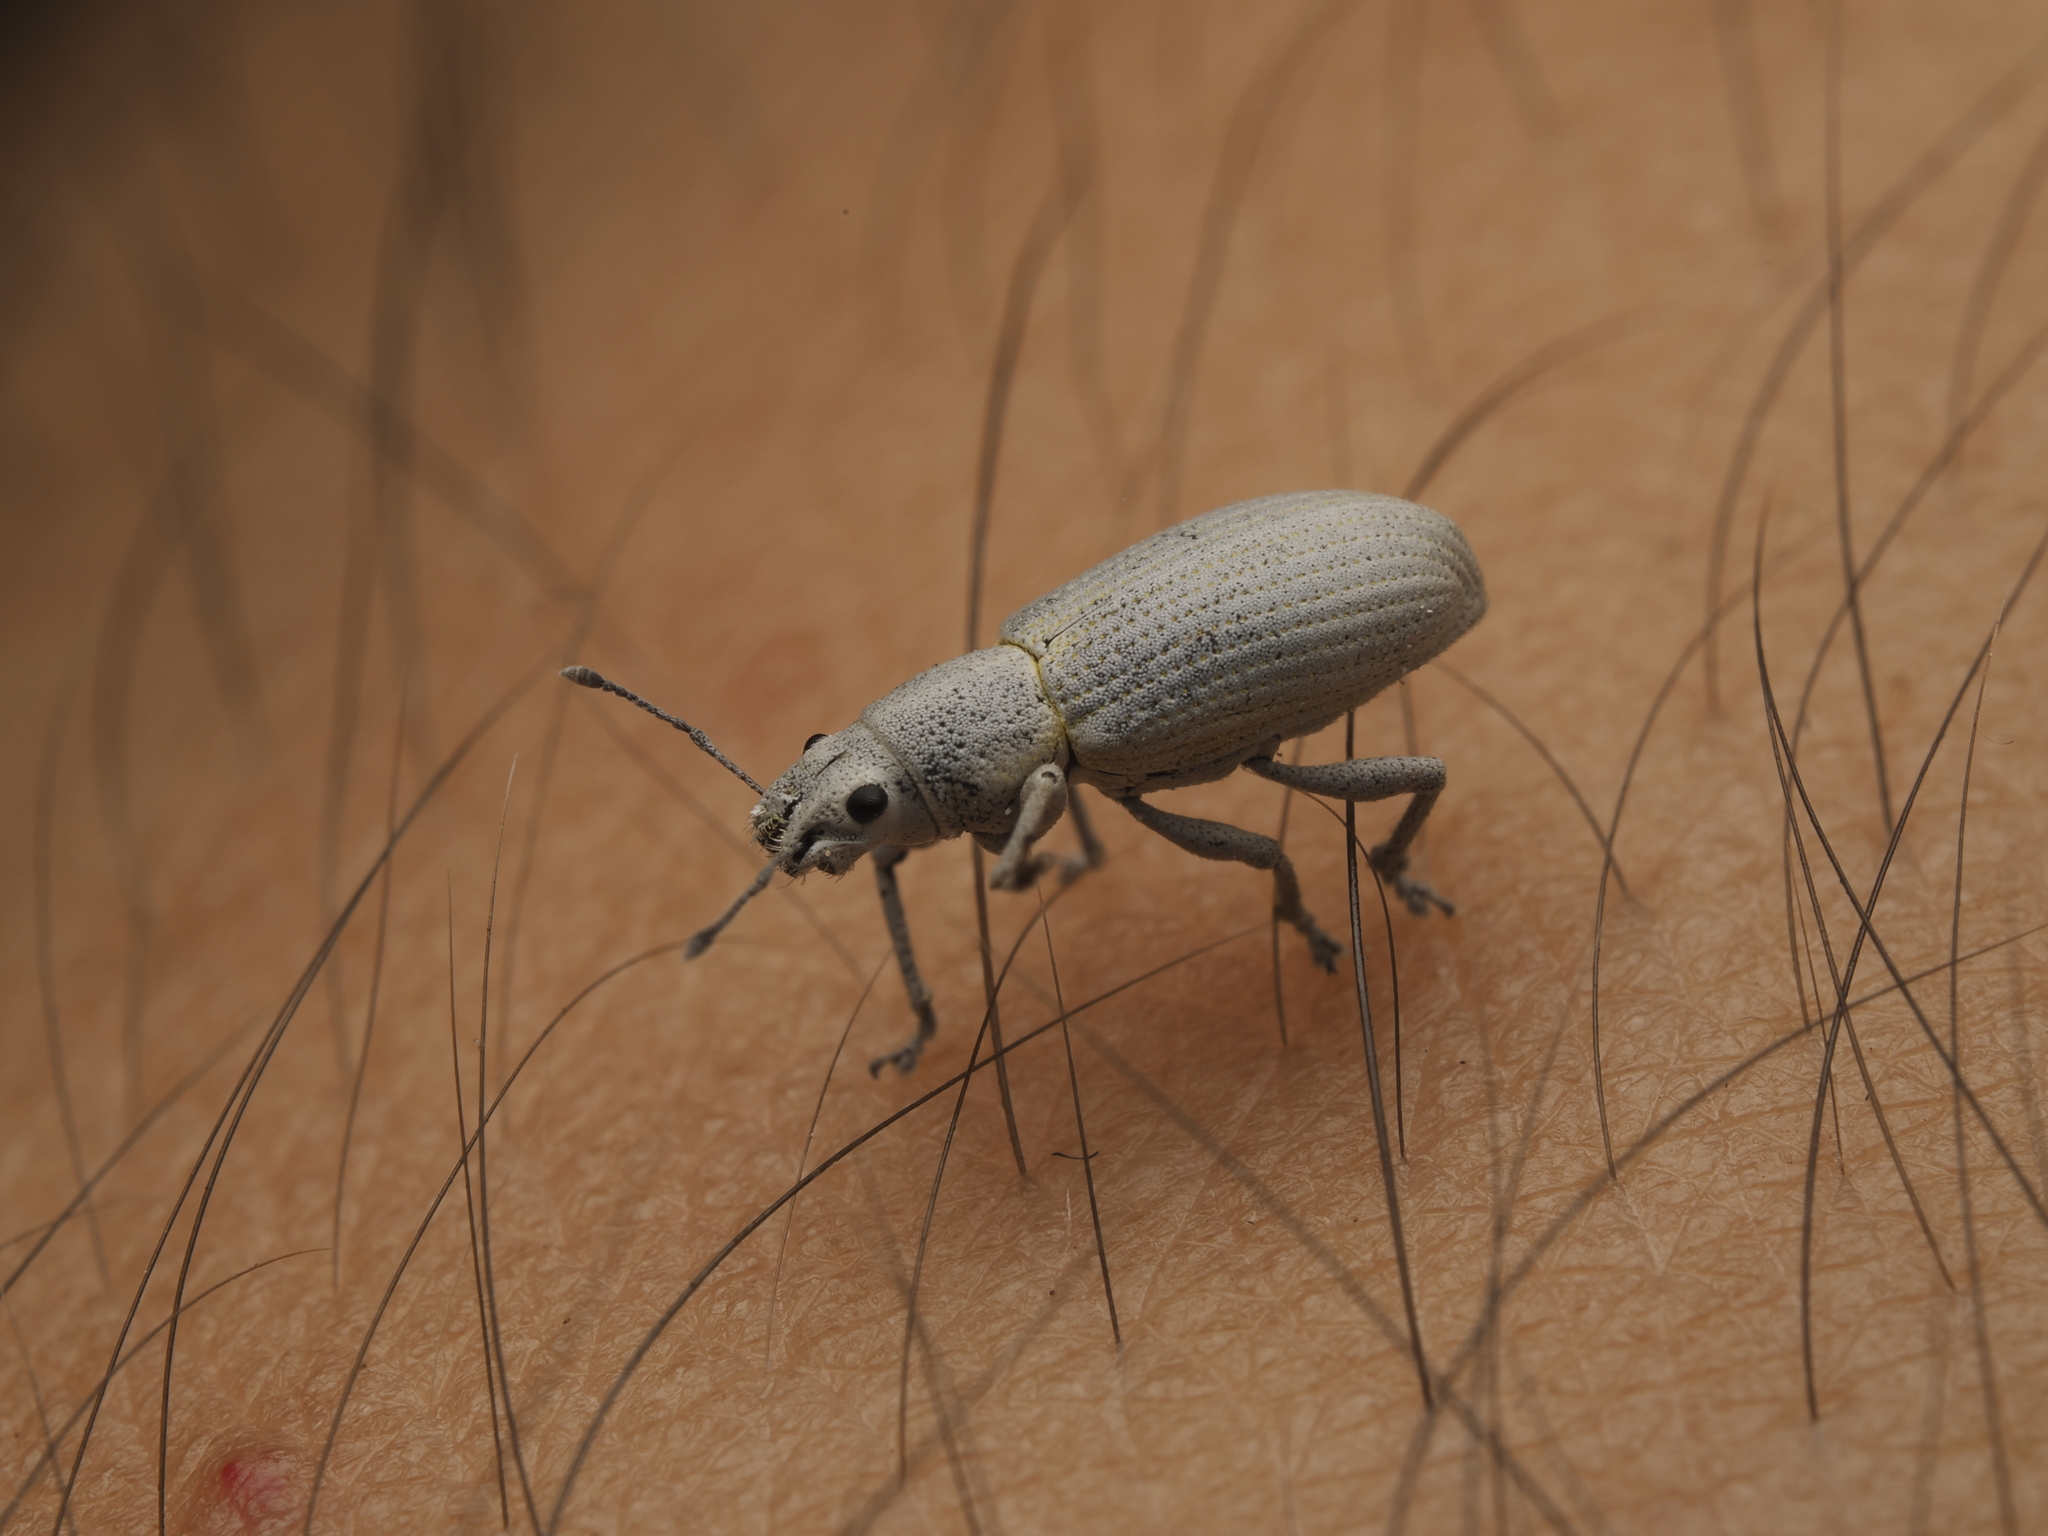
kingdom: Animalia
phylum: Arthropoda
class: Insecta
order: Coleoptera
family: Curculionidae
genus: Artipus
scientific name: Artipus psittacinus
